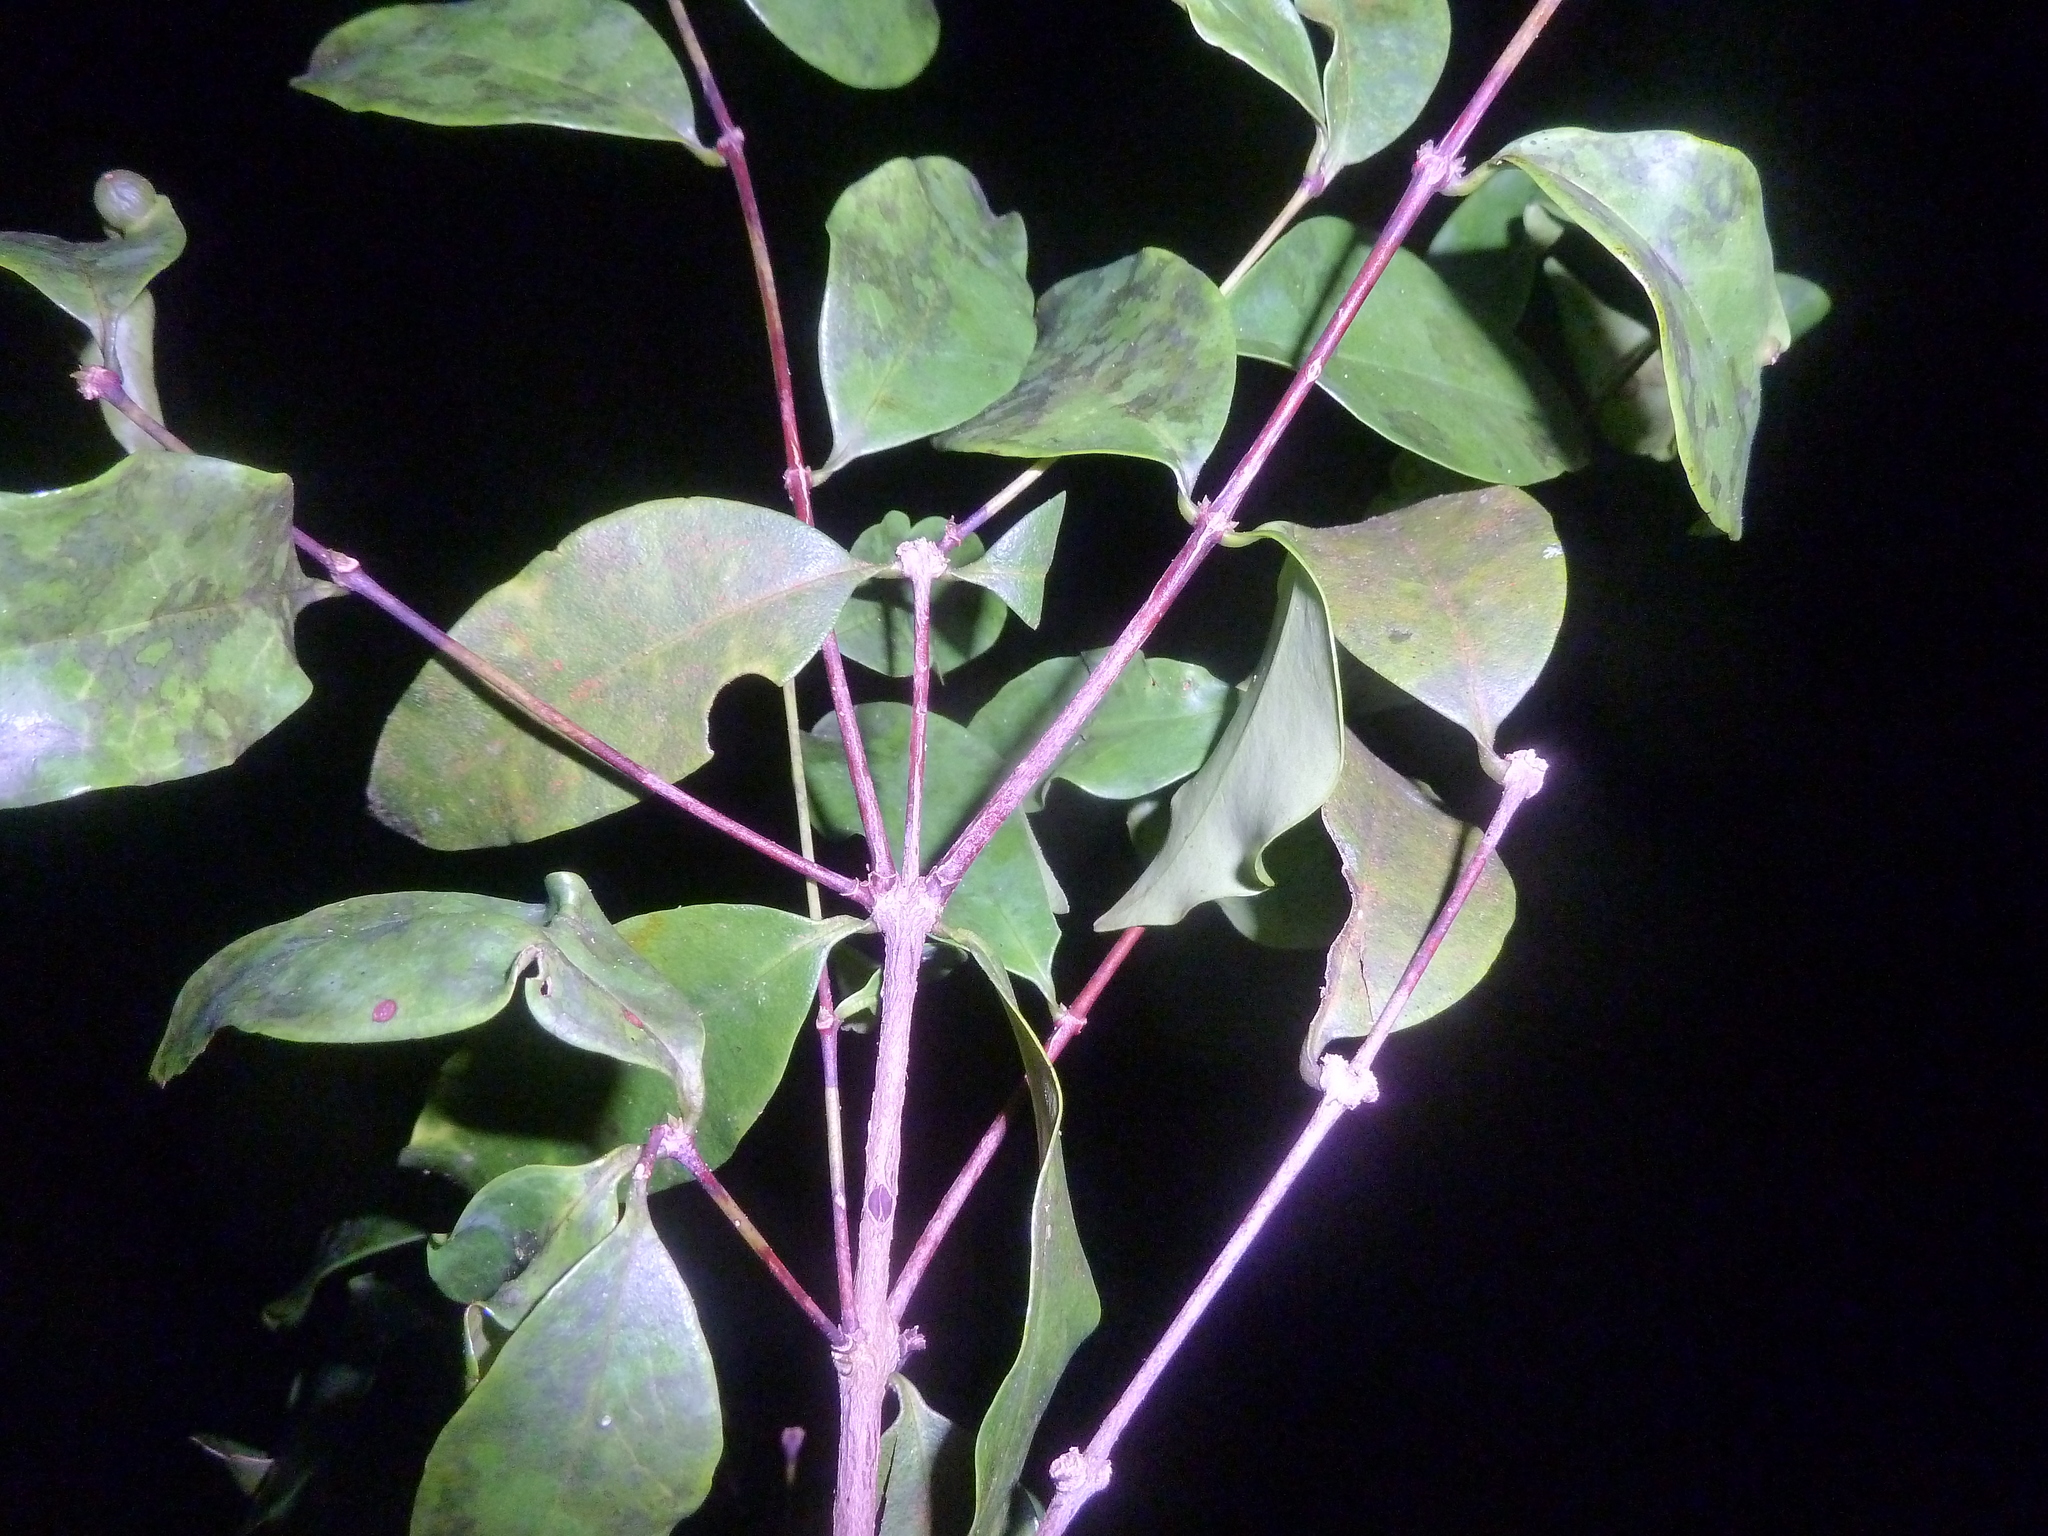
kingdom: Plantae
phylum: Tracheophyta
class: Magnoliopsida
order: Myrtales
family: Melastomataceae
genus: Mouriri
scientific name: Mouriri tuberculata
